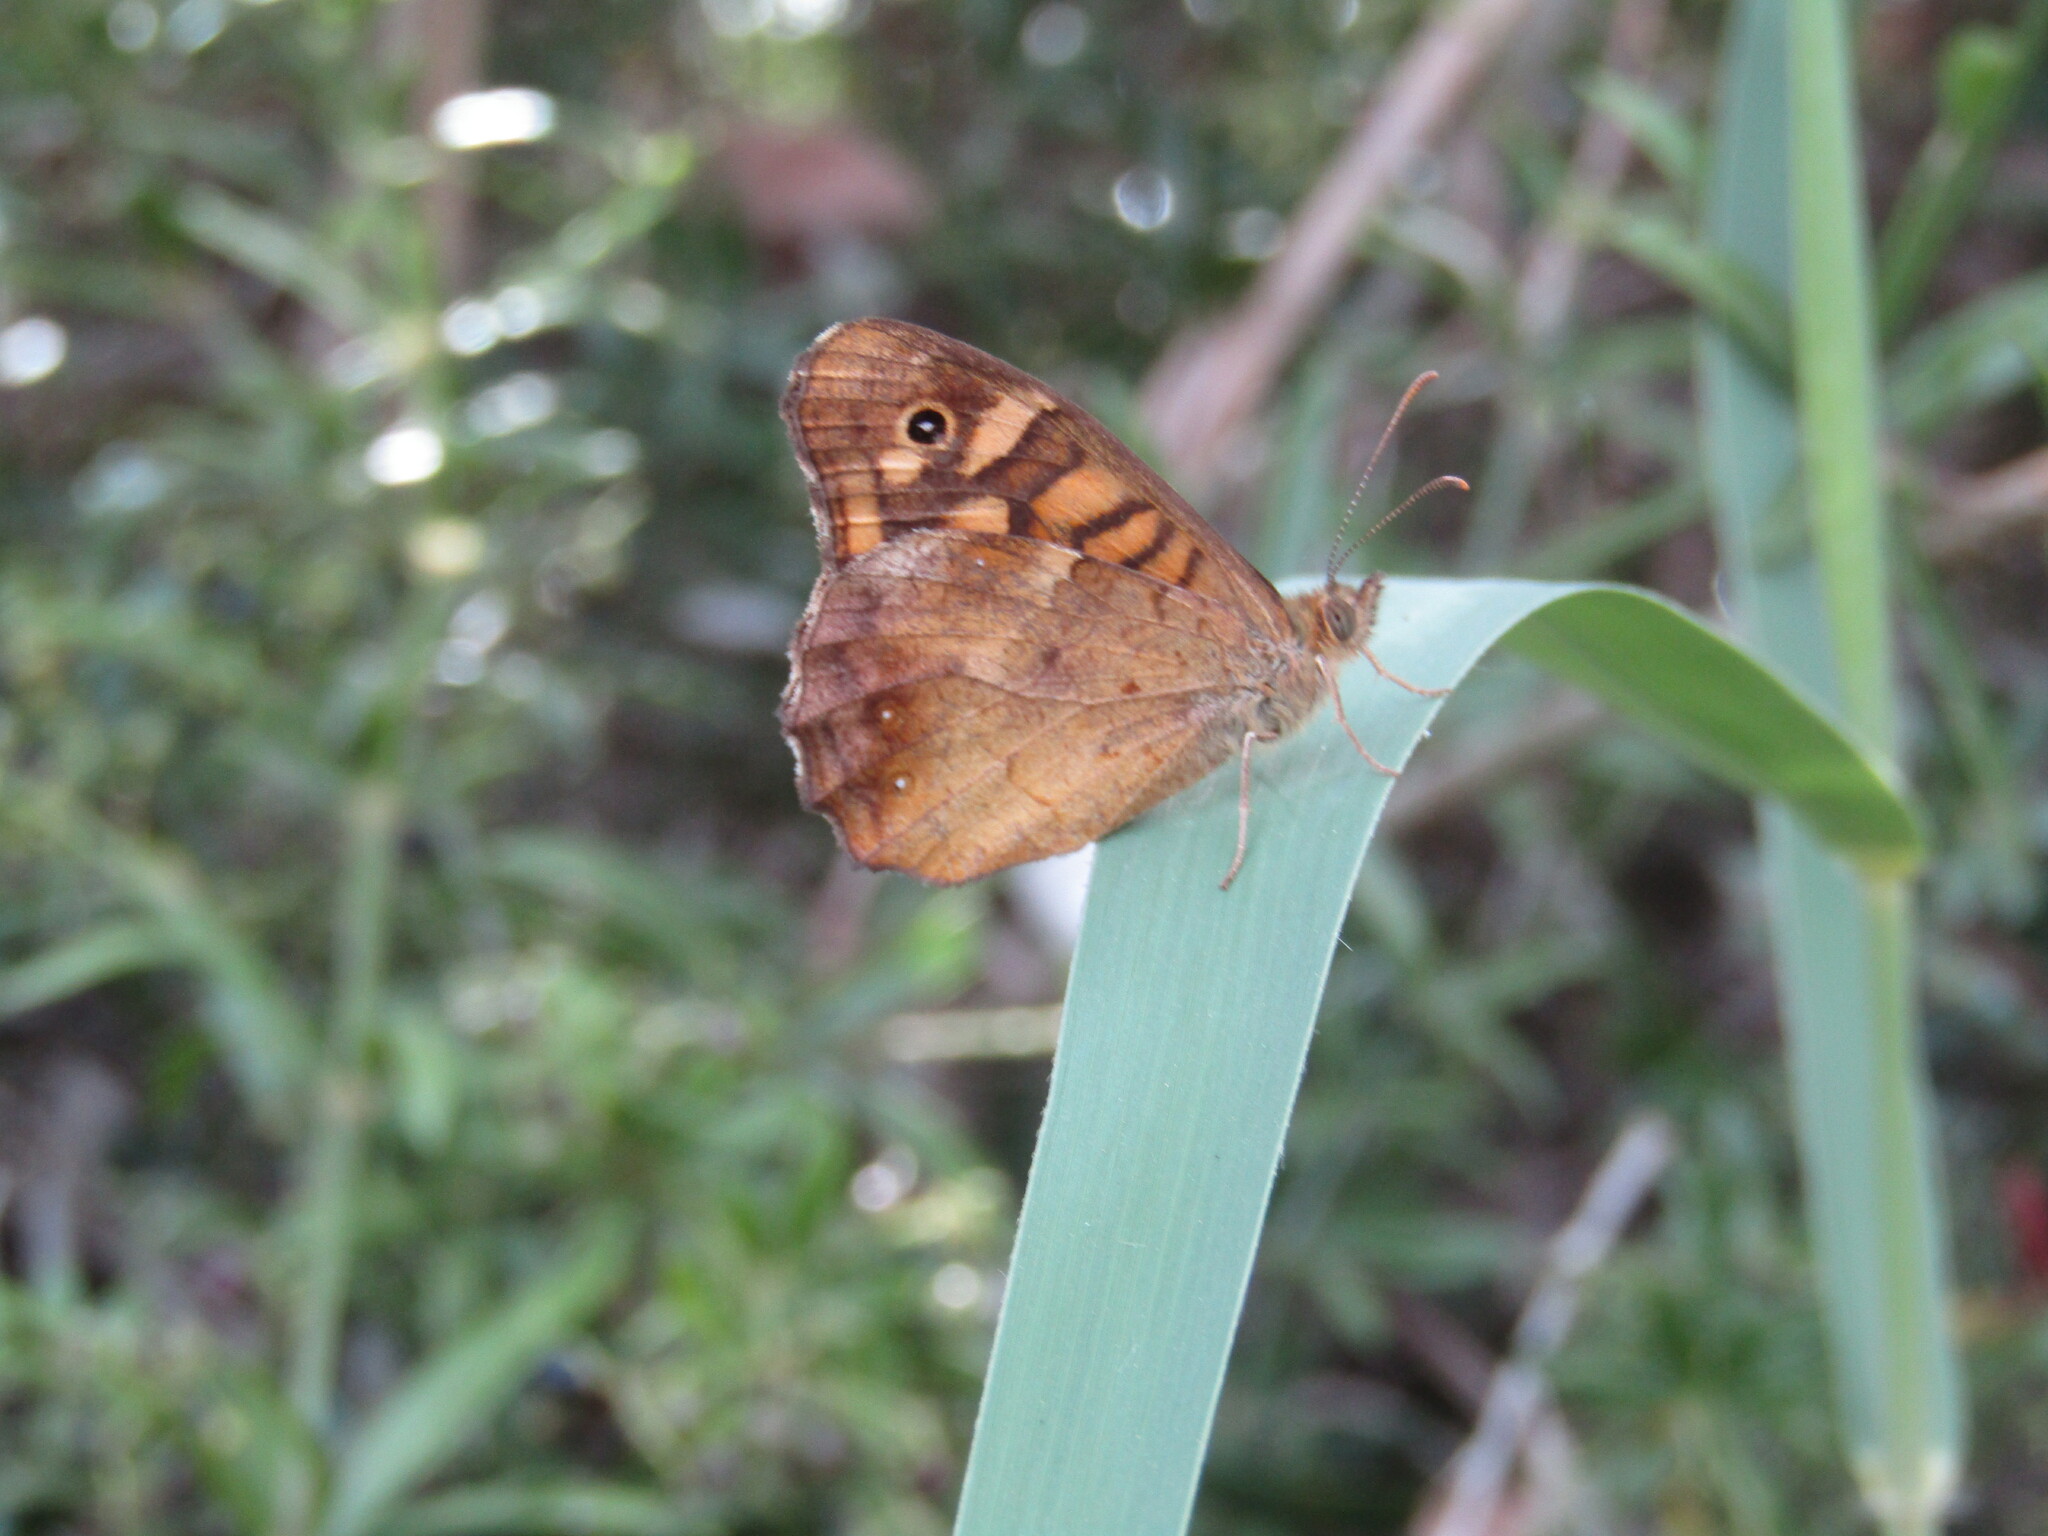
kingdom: Animalia
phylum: Arthropoda
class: Insecta
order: Lepidoptera
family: Nymphalidae
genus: Pararge
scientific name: Pararge aegeria
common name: Speckled wood
